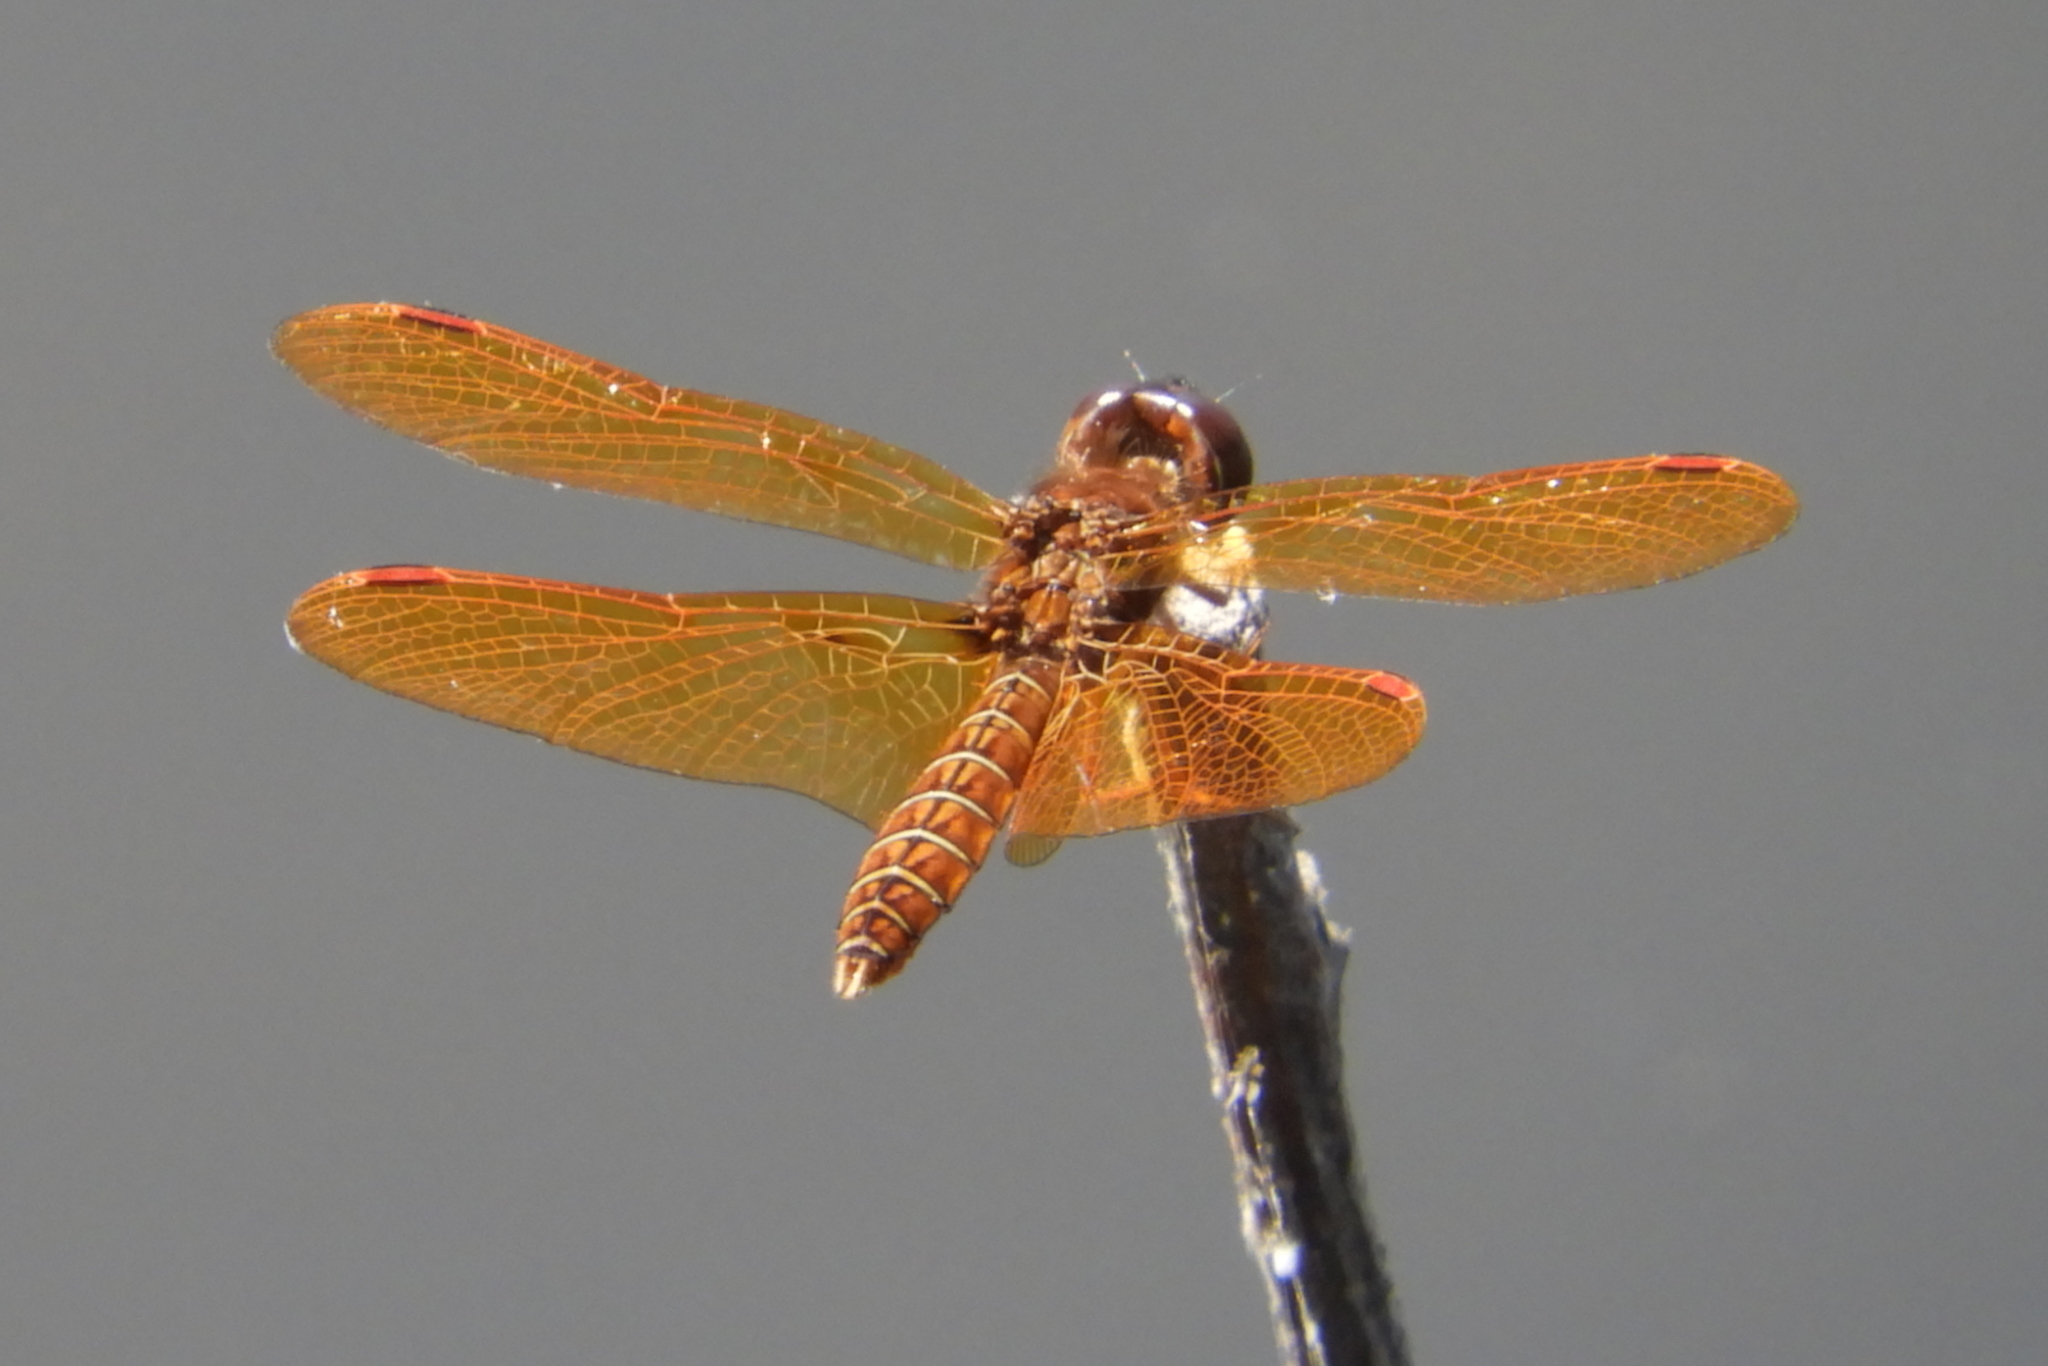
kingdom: Animalia
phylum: Arthropoda
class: Insecta
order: Odonata
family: Libellulidae
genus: Perithemis
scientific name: Perithemis tenera
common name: Eastern amberwing
